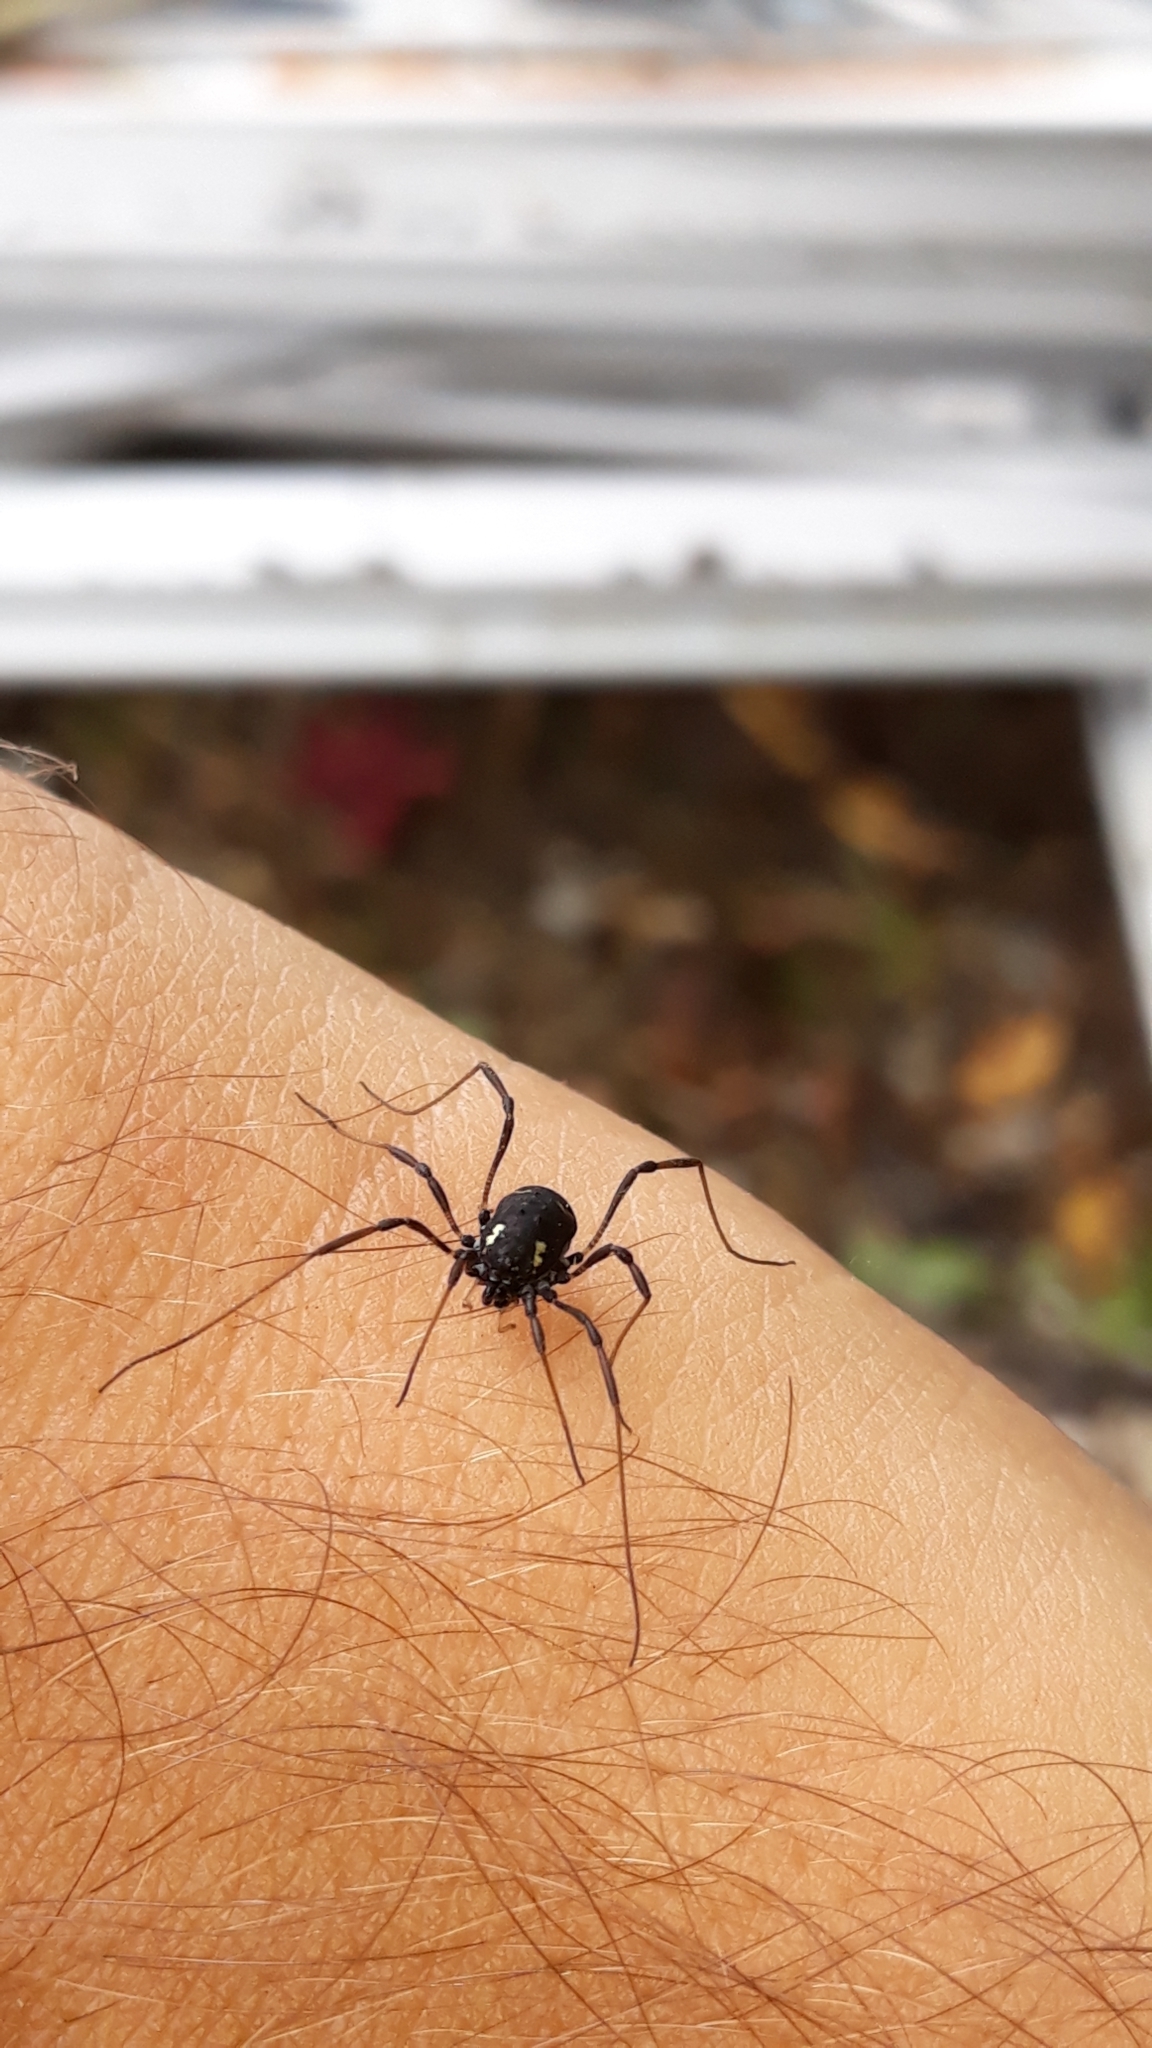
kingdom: Animalia
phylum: Arthropoda
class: Arachnida
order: Opiliones
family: Nemastomatidae
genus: Paranemastoma
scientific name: Paranemastoma quadripunctatum
